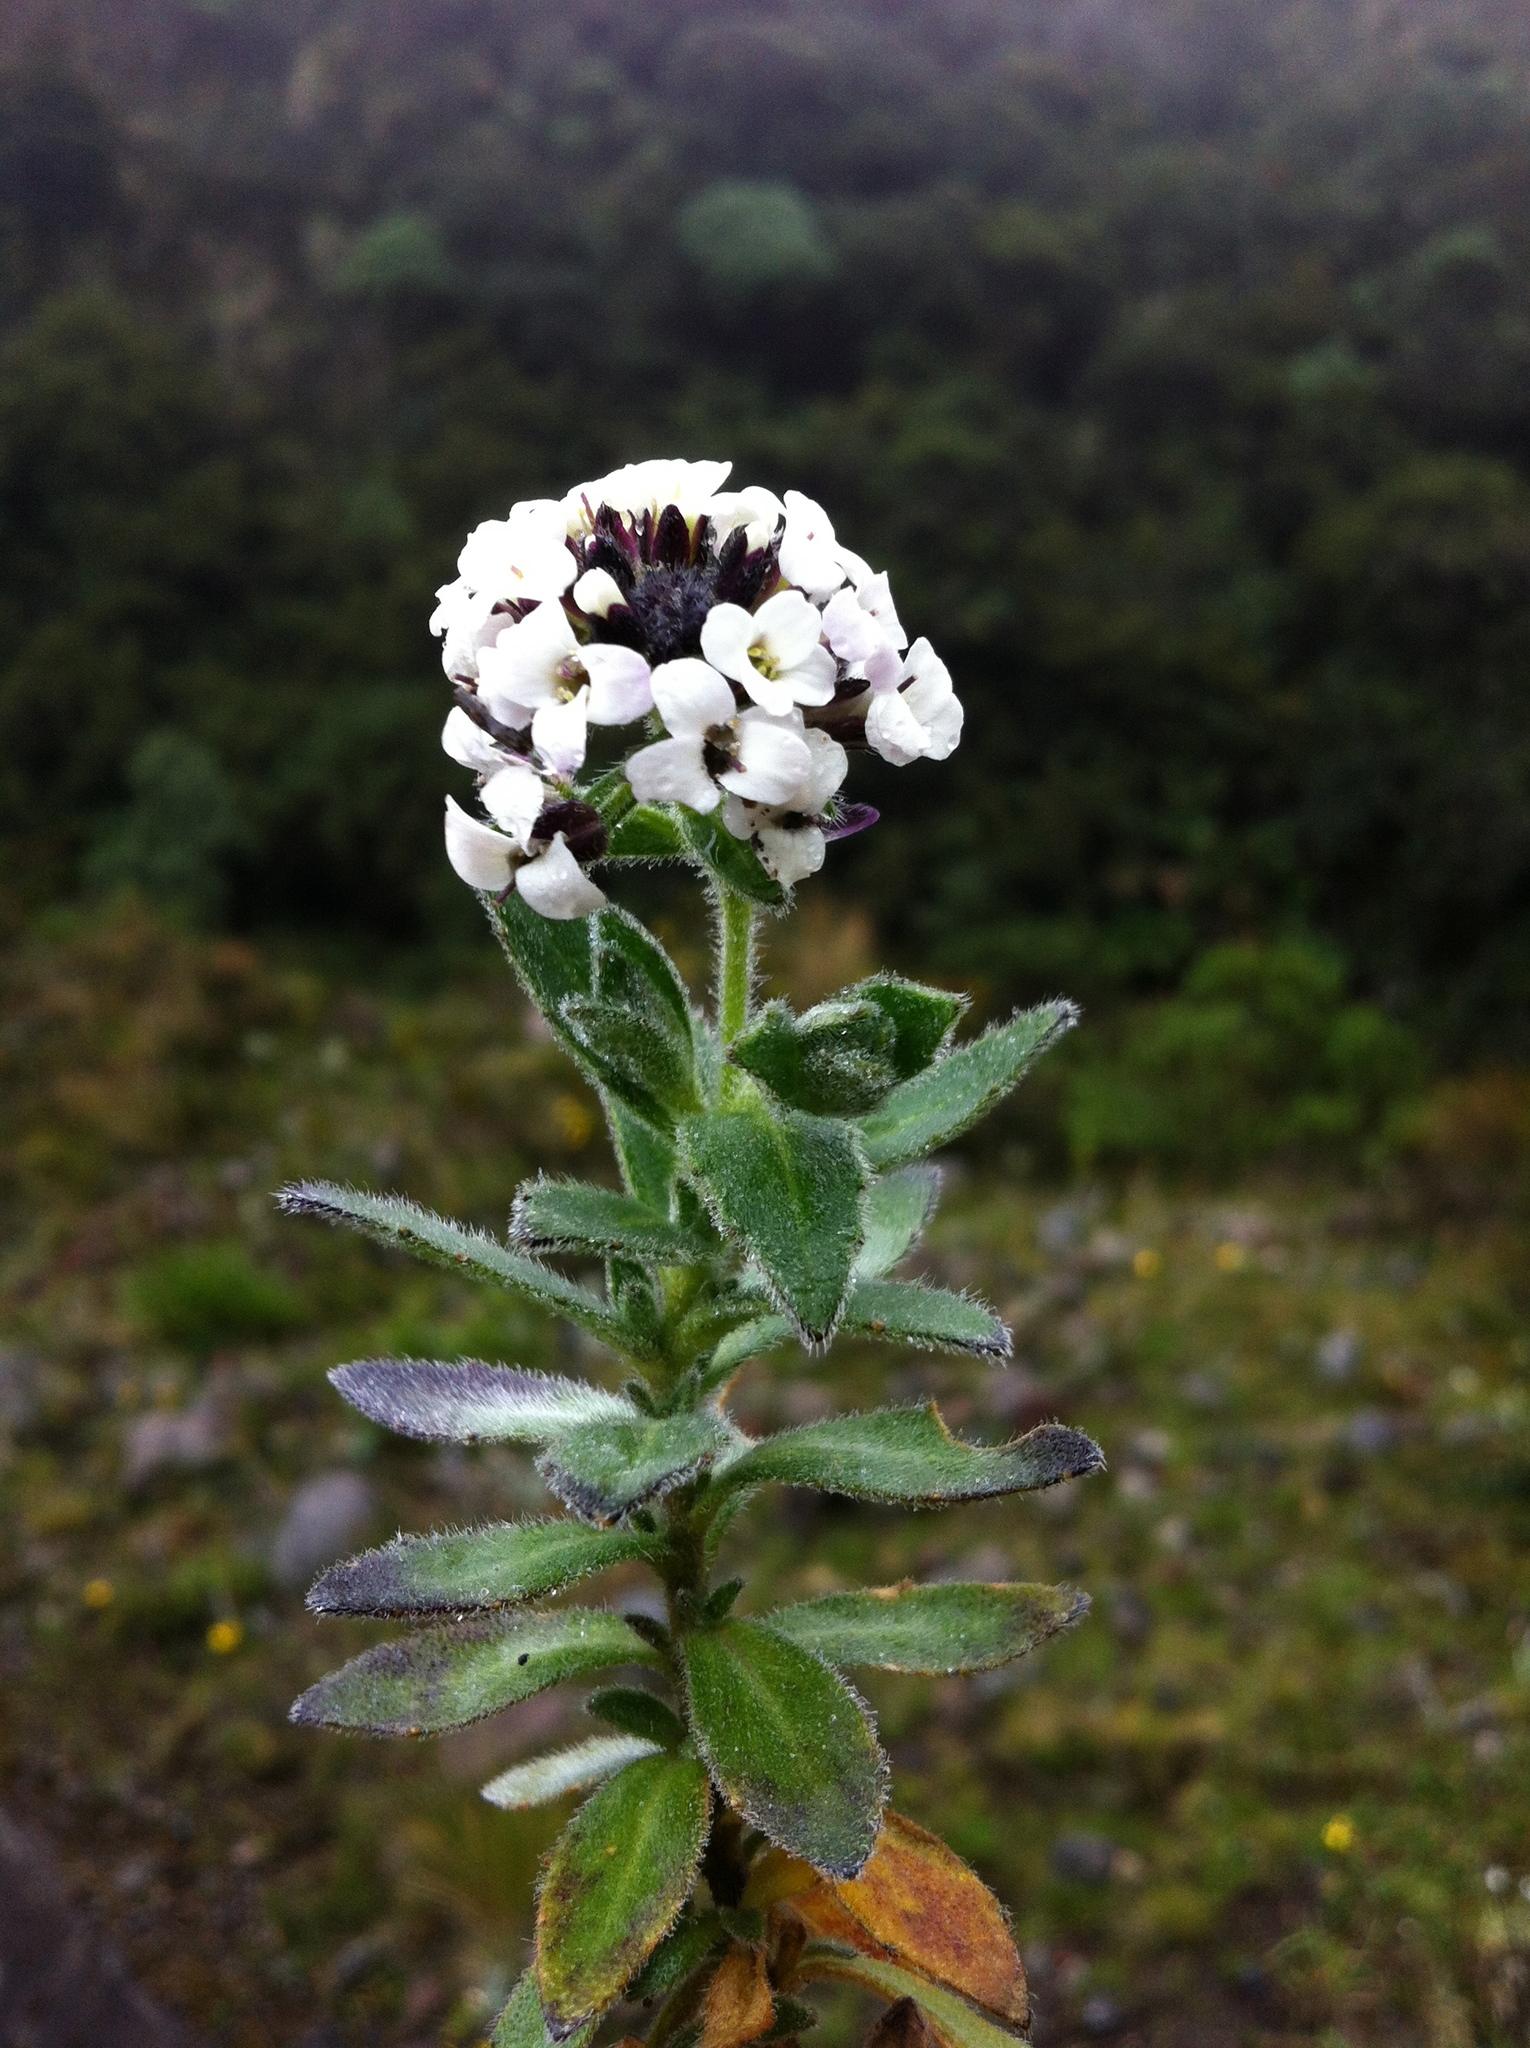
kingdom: Plantae
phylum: Tracheophyta
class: Magnoliopsida
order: Brassicales
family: Brassicaceae
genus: Draba
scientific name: Draba pycnophylla
